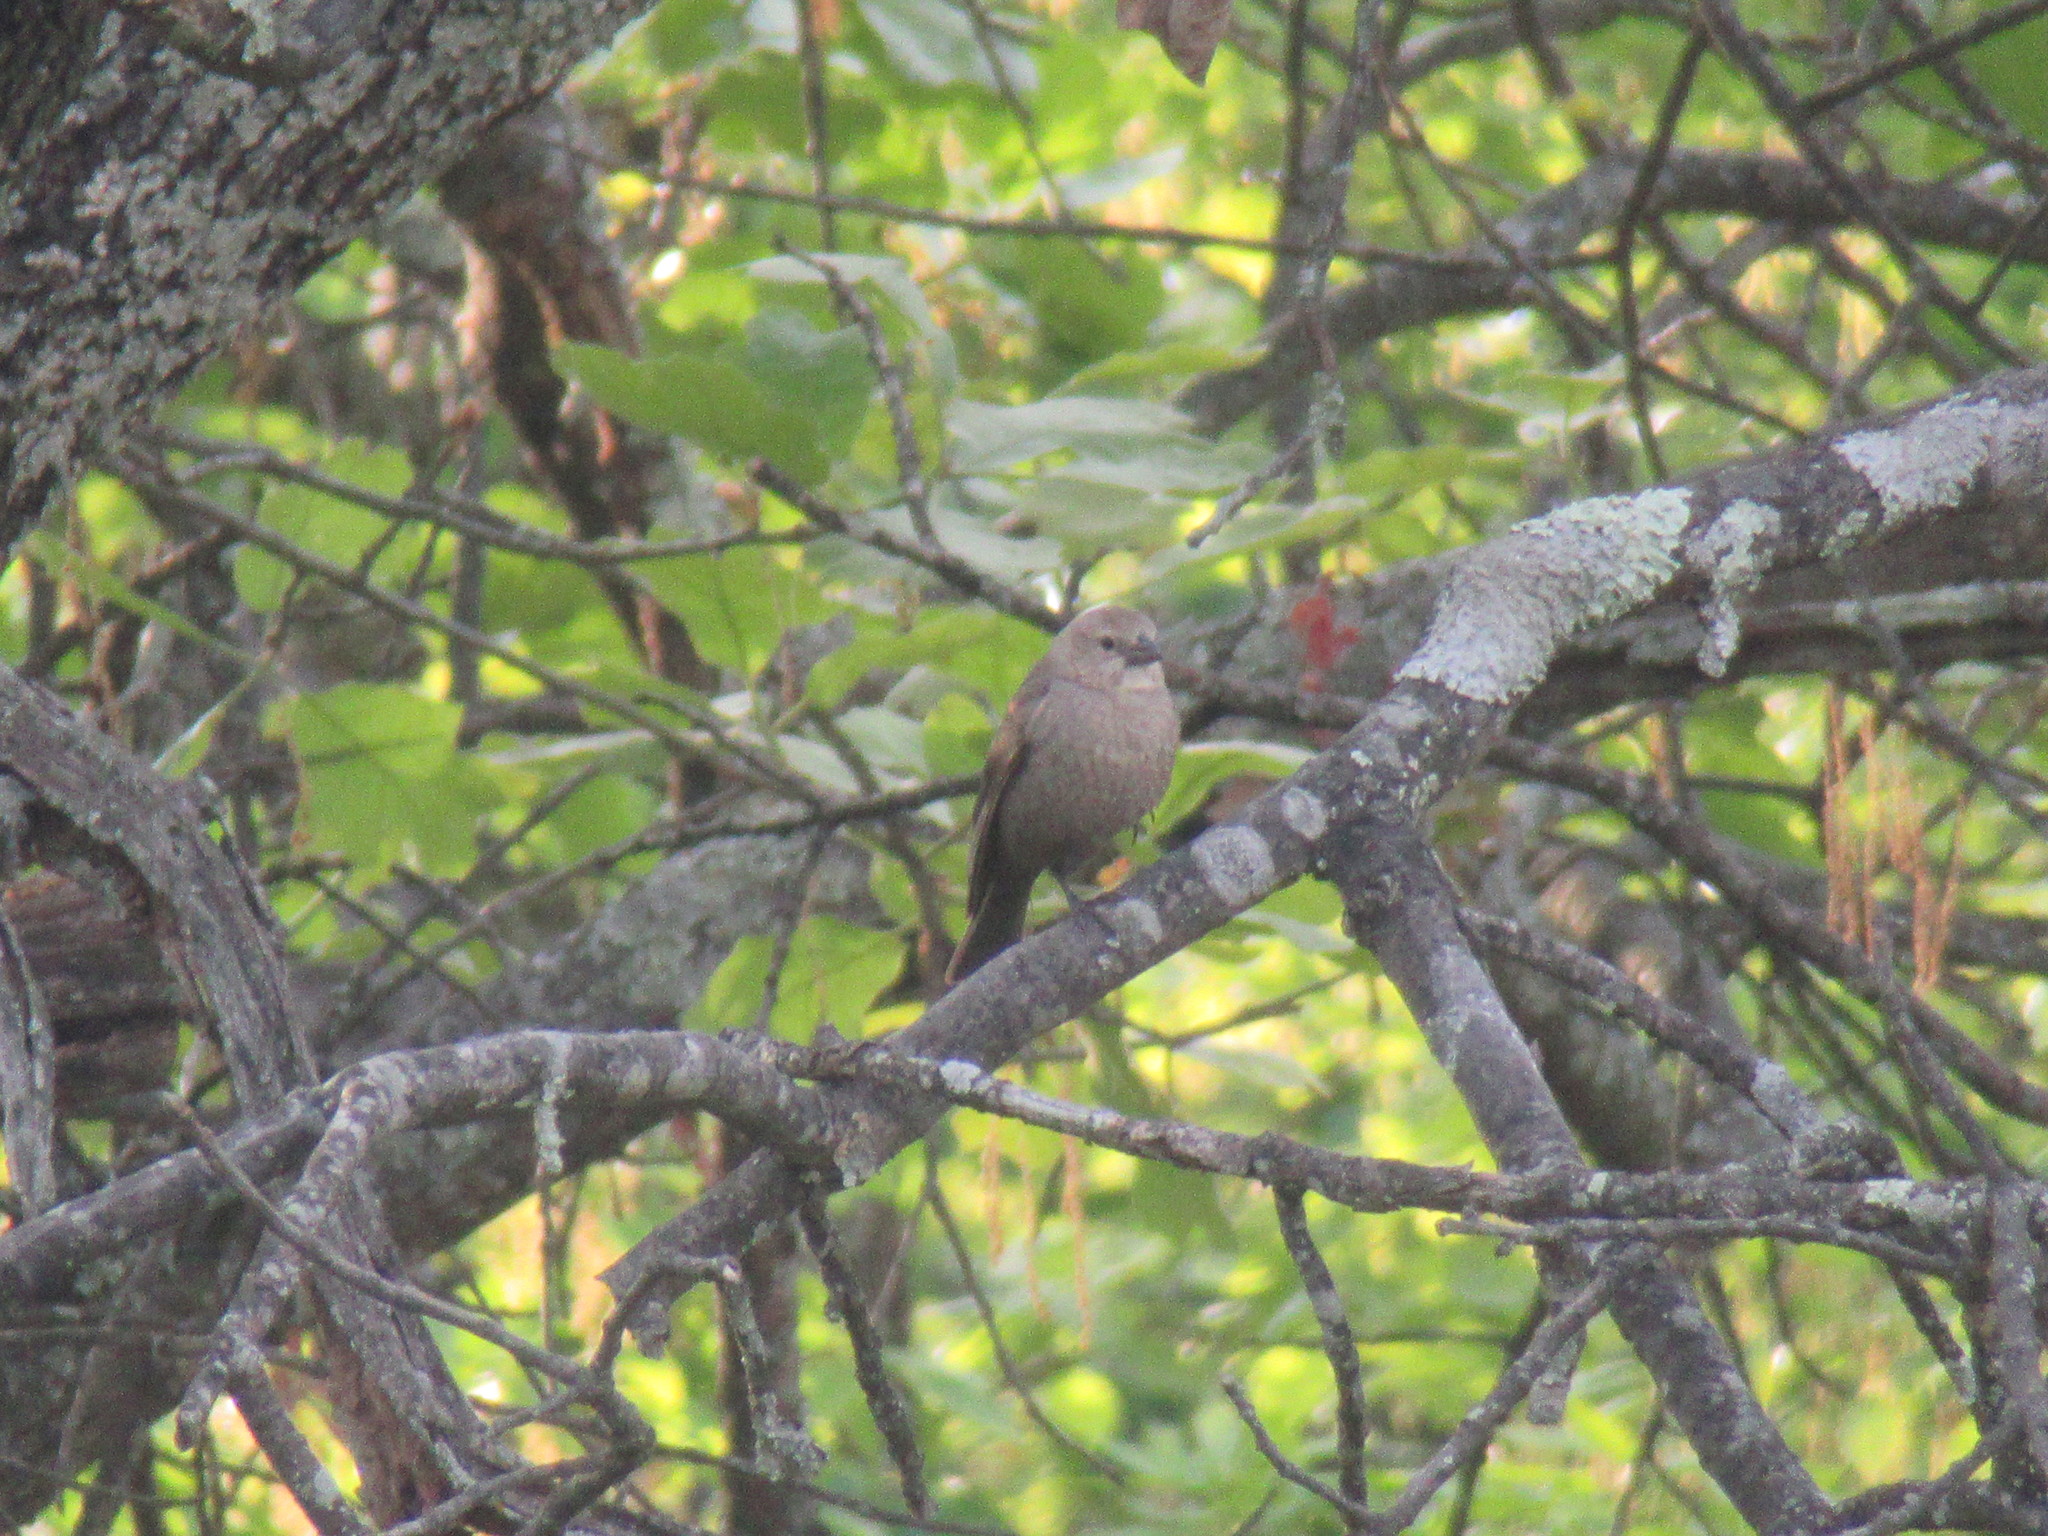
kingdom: Animalia
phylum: Chordata
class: Aves
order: Passeriformes
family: Icteridae
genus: Molothrus
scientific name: Molothrus ater
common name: Brown-headed cowbird
